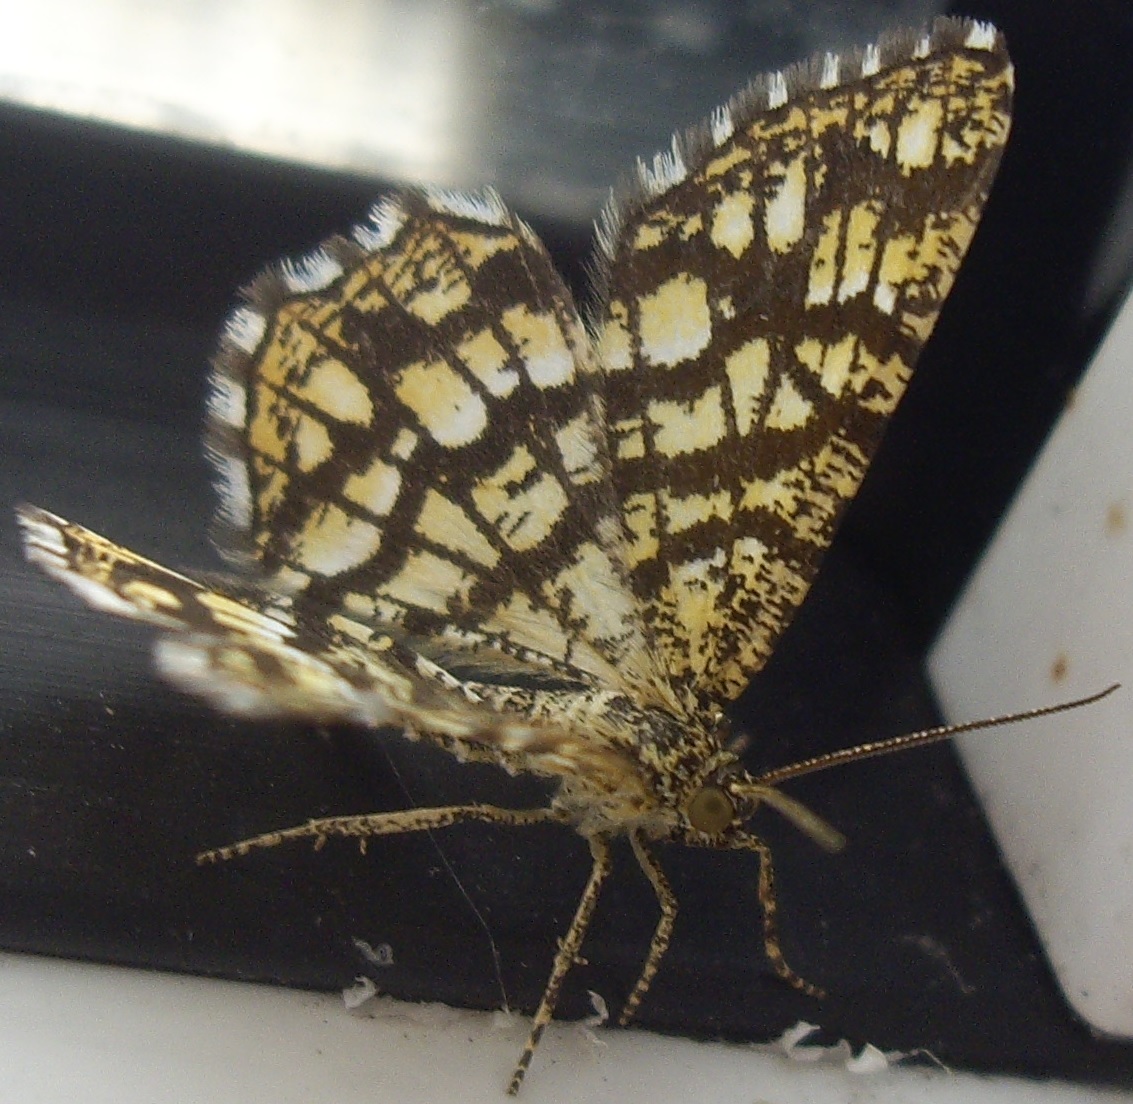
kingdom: Animalia
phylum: Arthropoda
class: Insecta
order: Lepidoptera
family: Geometridae
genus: Chiasmia
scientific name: Chiasmia clathrata
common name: Latticed heath
